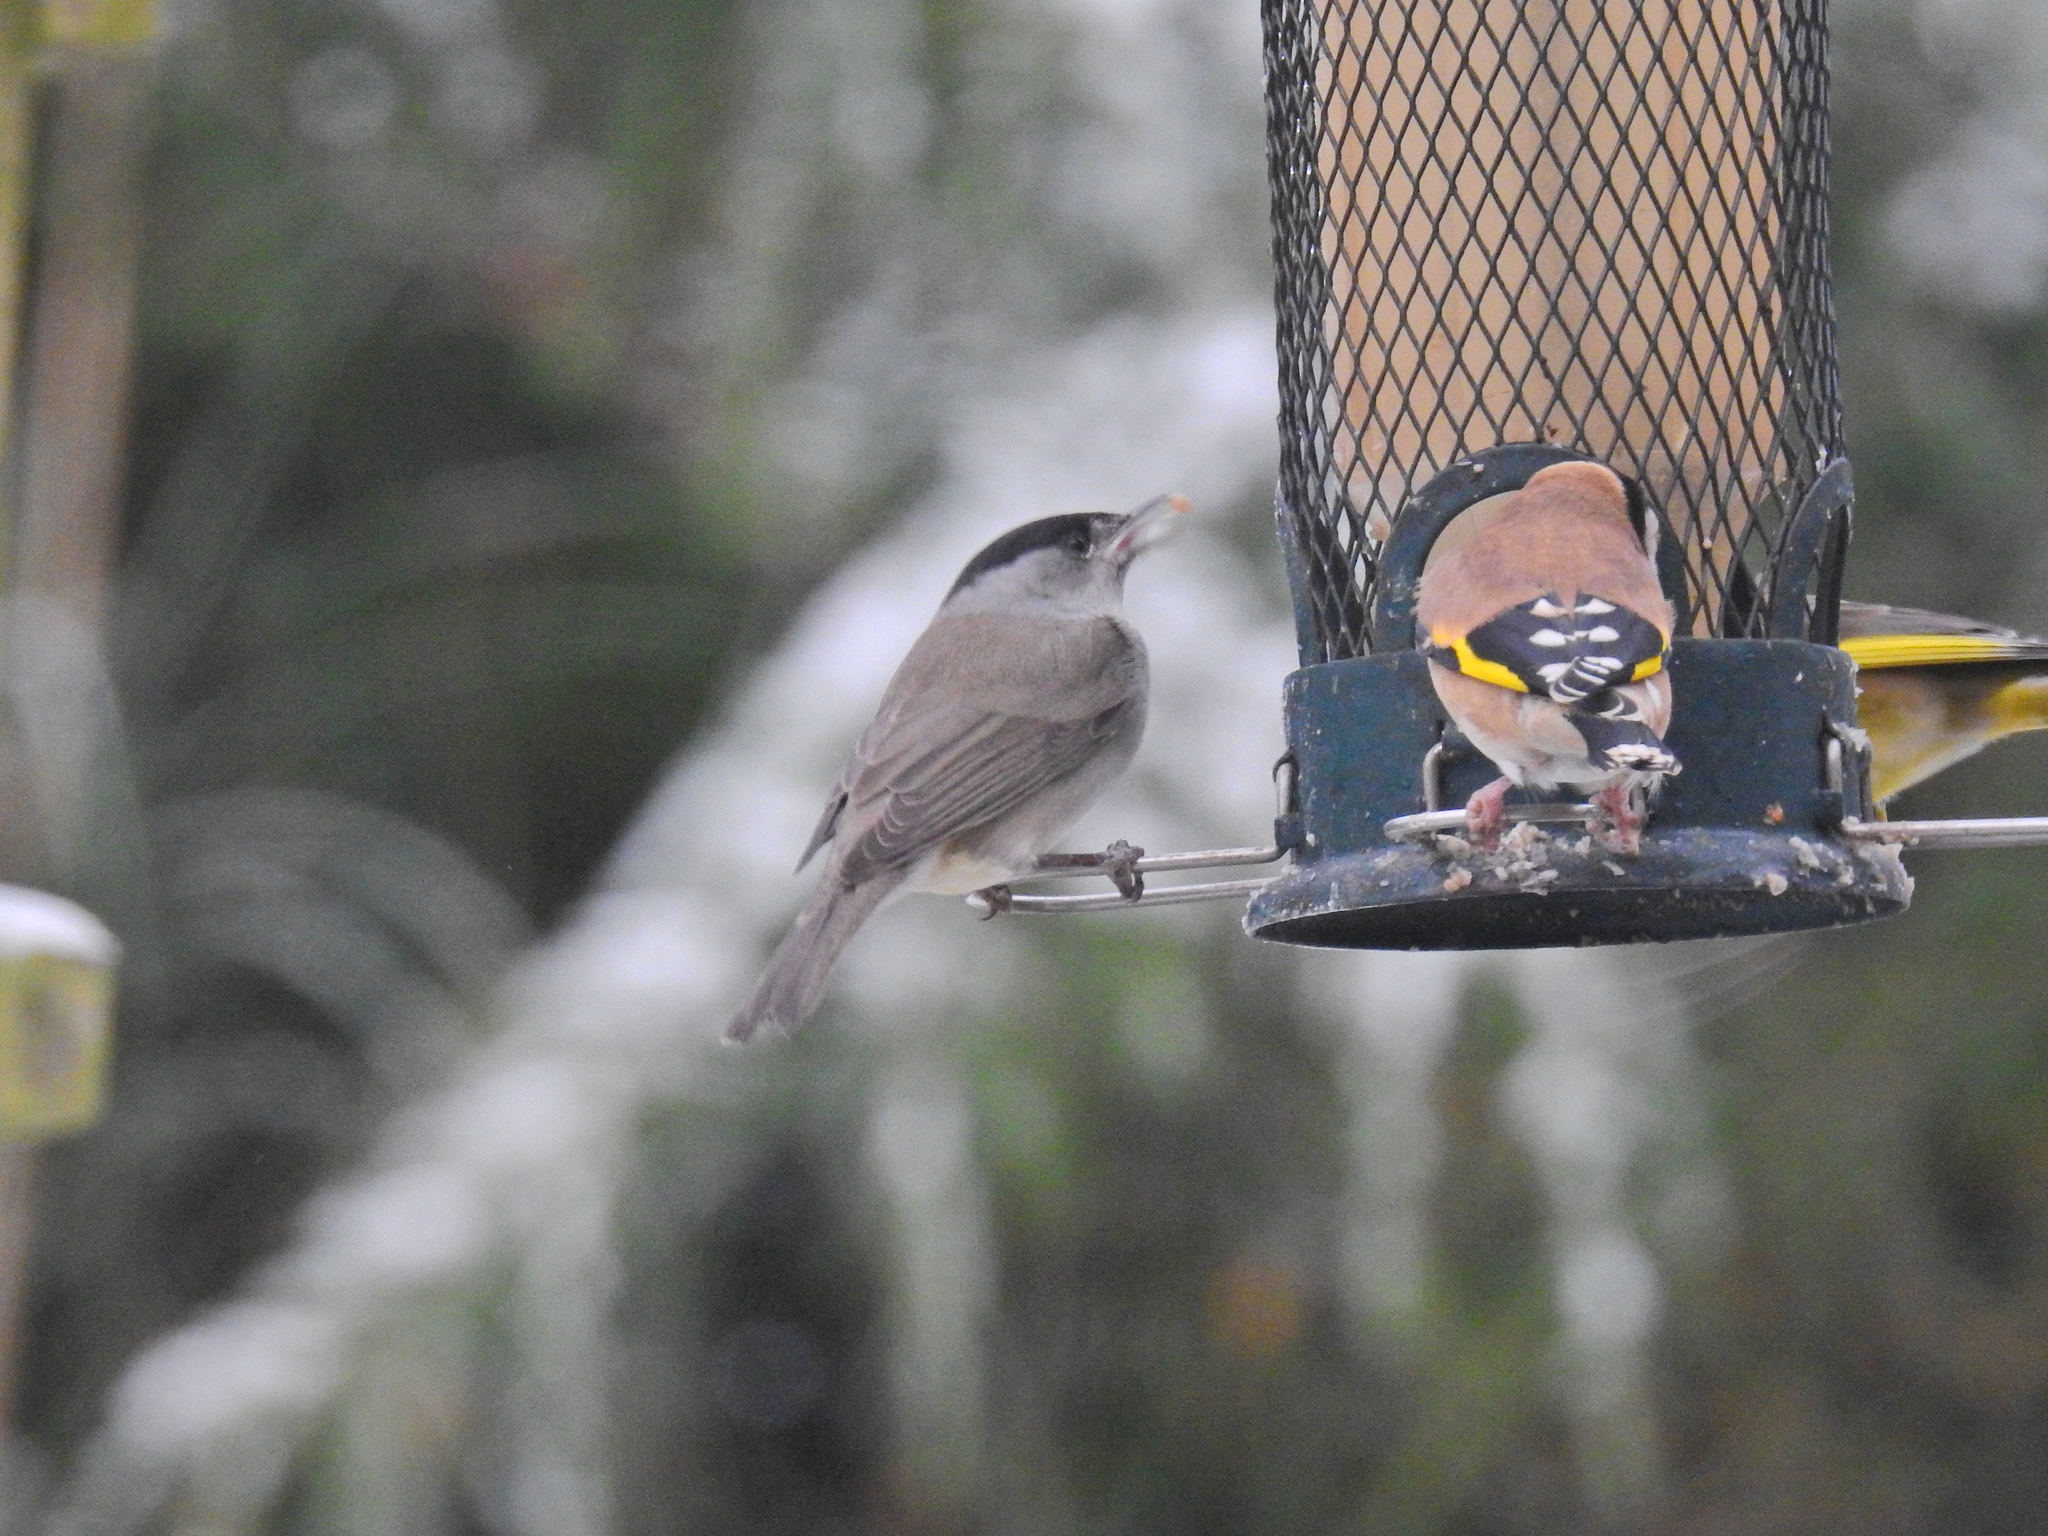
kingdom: Animalia
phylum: Chordata
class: Aves
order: Passeriformes
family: Sylviidae
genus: Sylvia
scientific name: Sylvia atricapilla
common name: Eurasian blackcap
